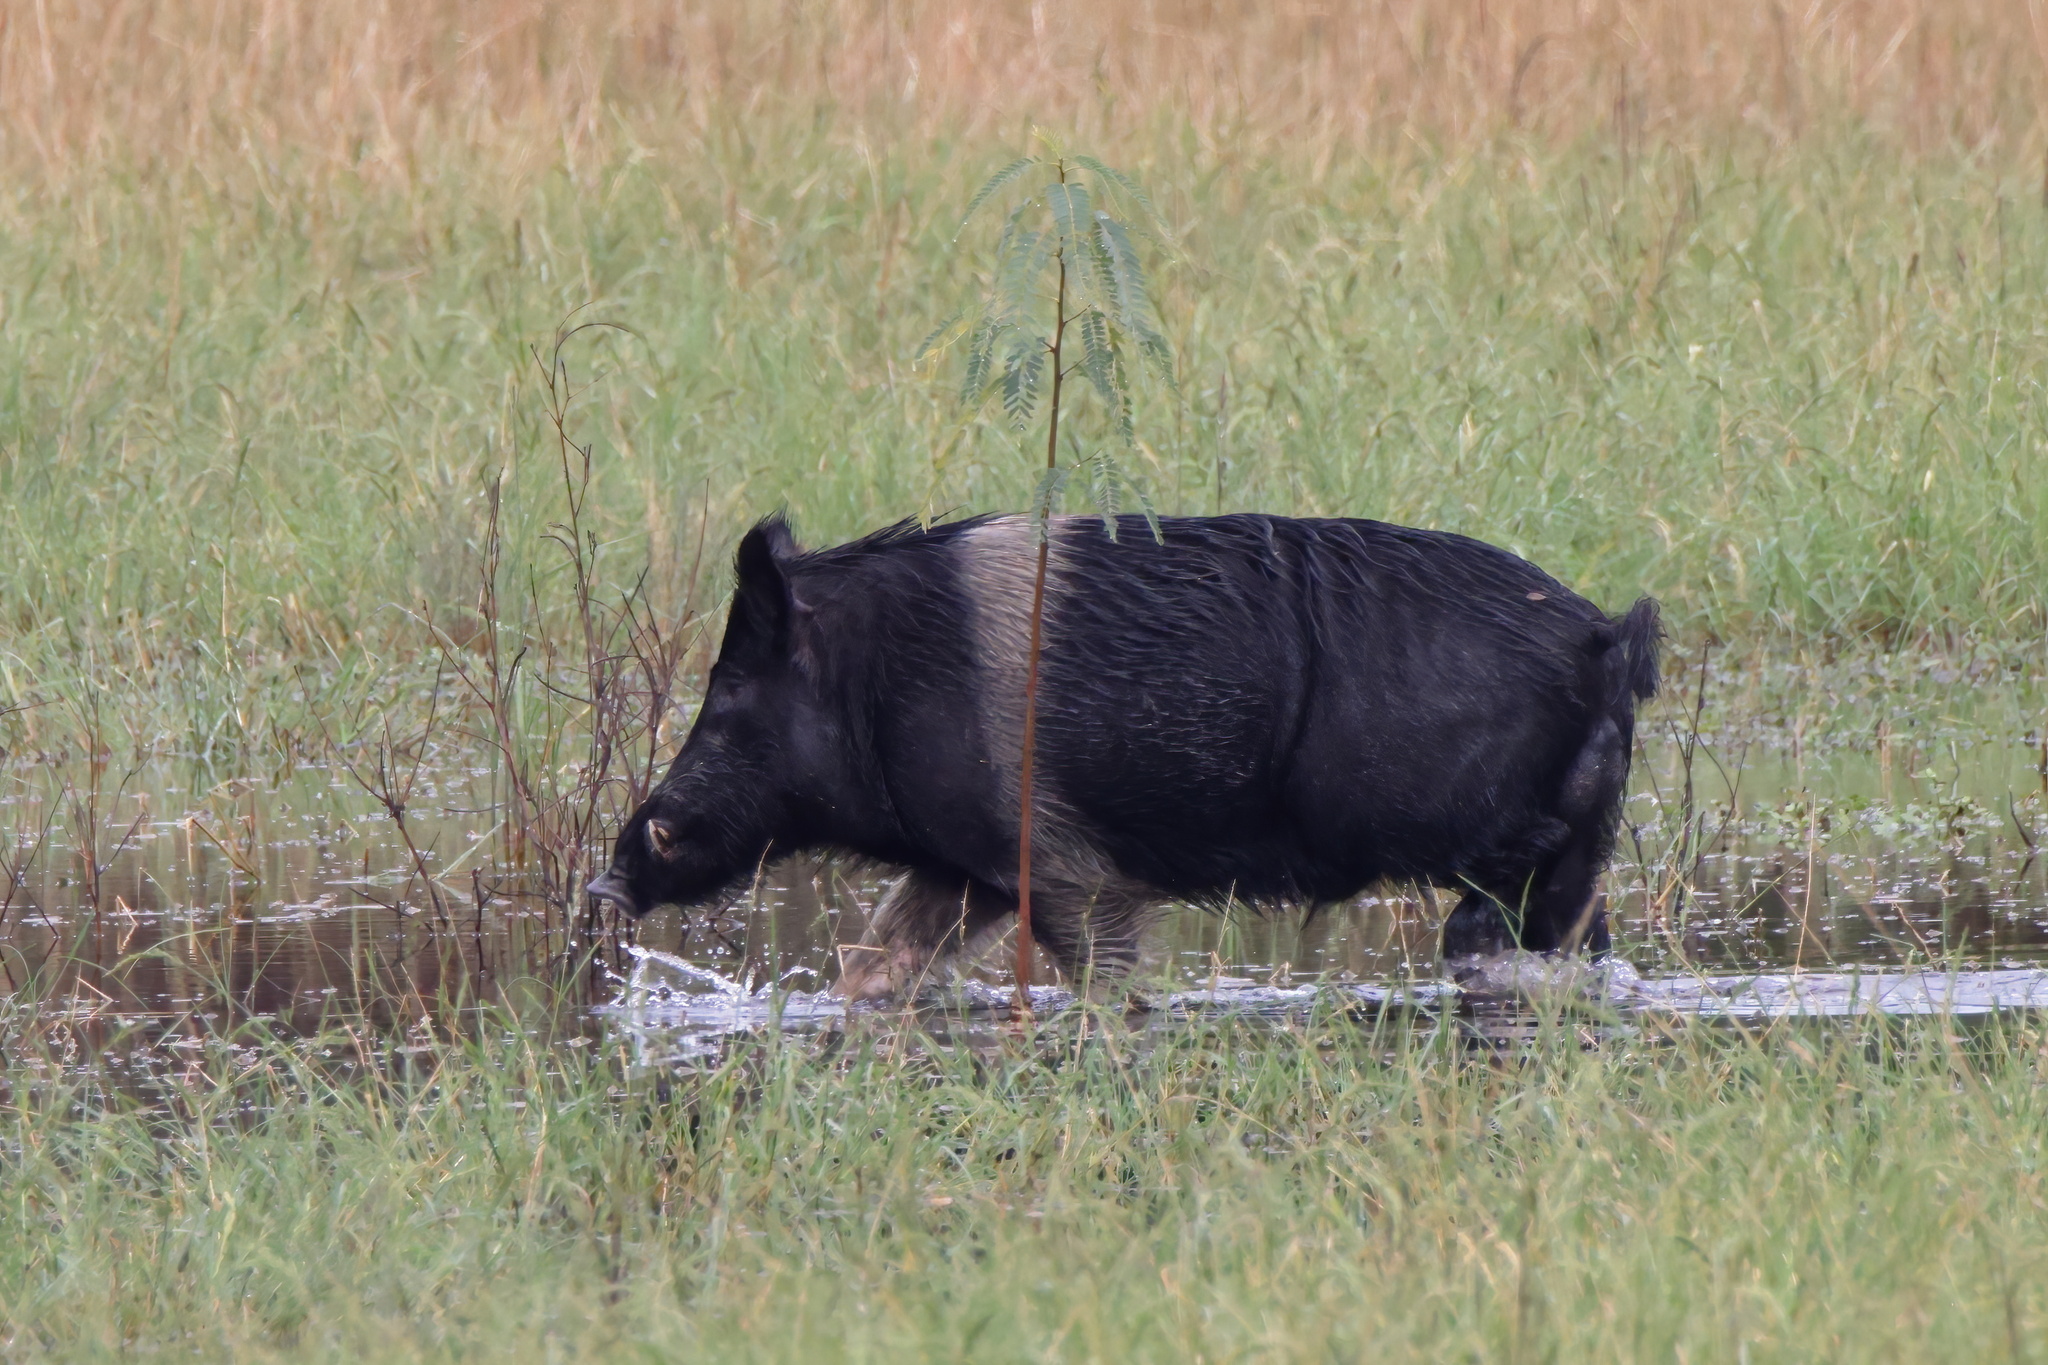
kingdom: Animalia
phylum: Chordata
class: Mammalia
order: Artiodactyla
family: Suidae
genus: Sus
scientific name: Sus scrofa
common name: Wild boar
